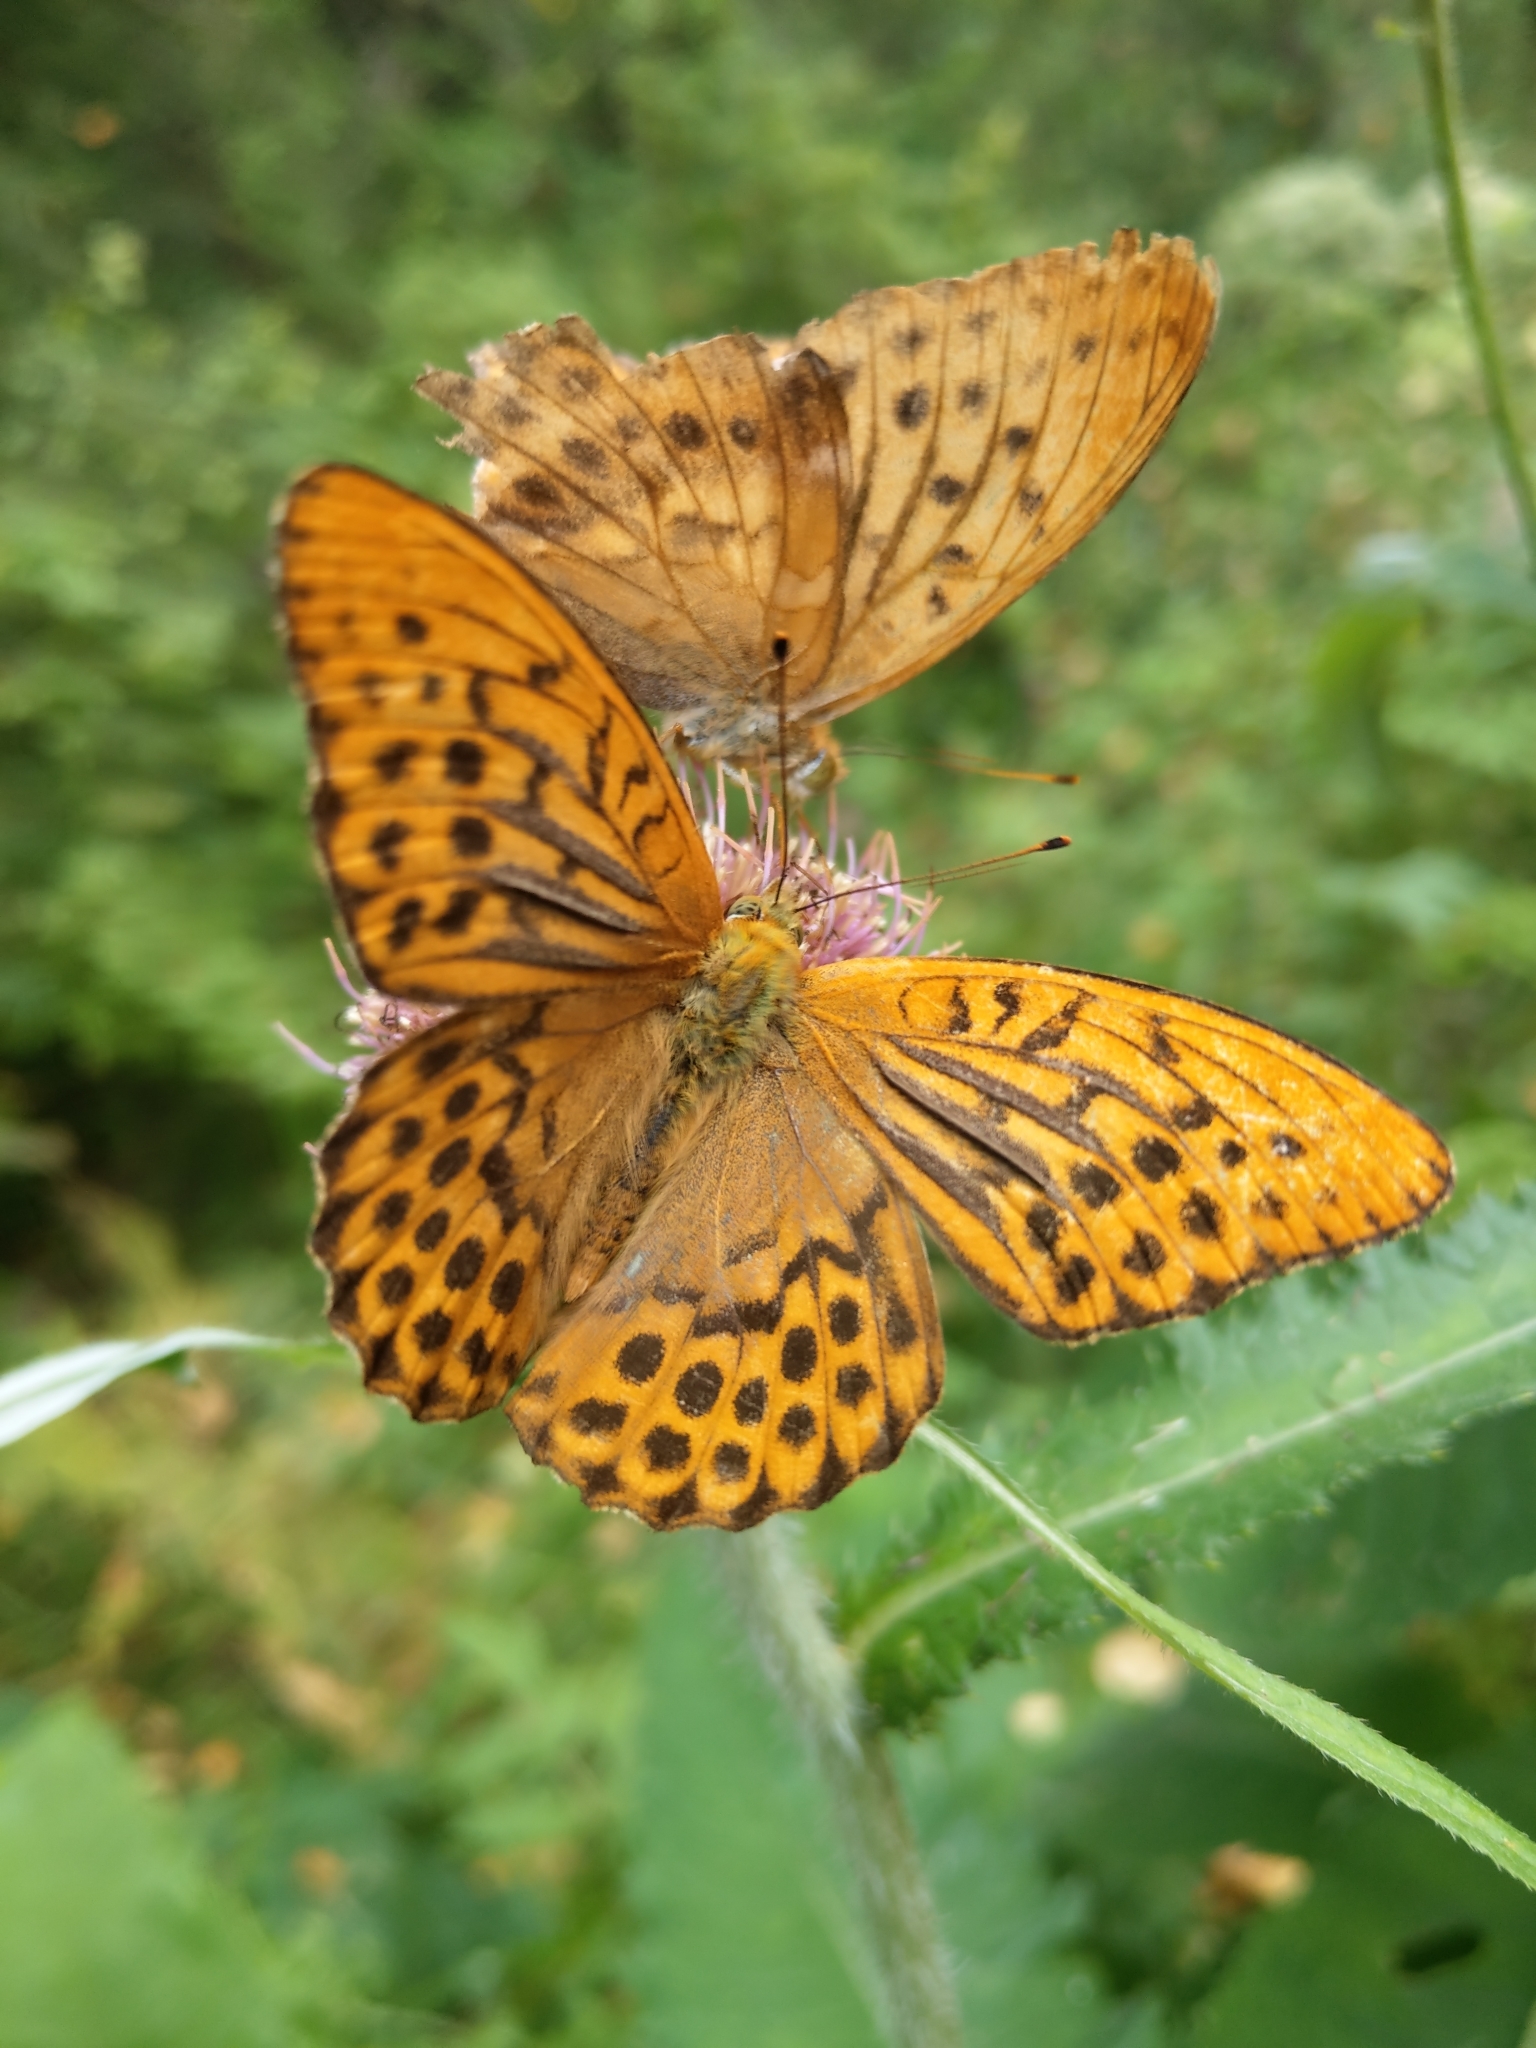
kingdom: Animalia
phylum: Arthropoda
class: Insecta
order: Lepidoptera
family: Nymphalidae
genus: Argynnis
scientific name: Argynnis paphia
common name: Silver-washed fritillary
